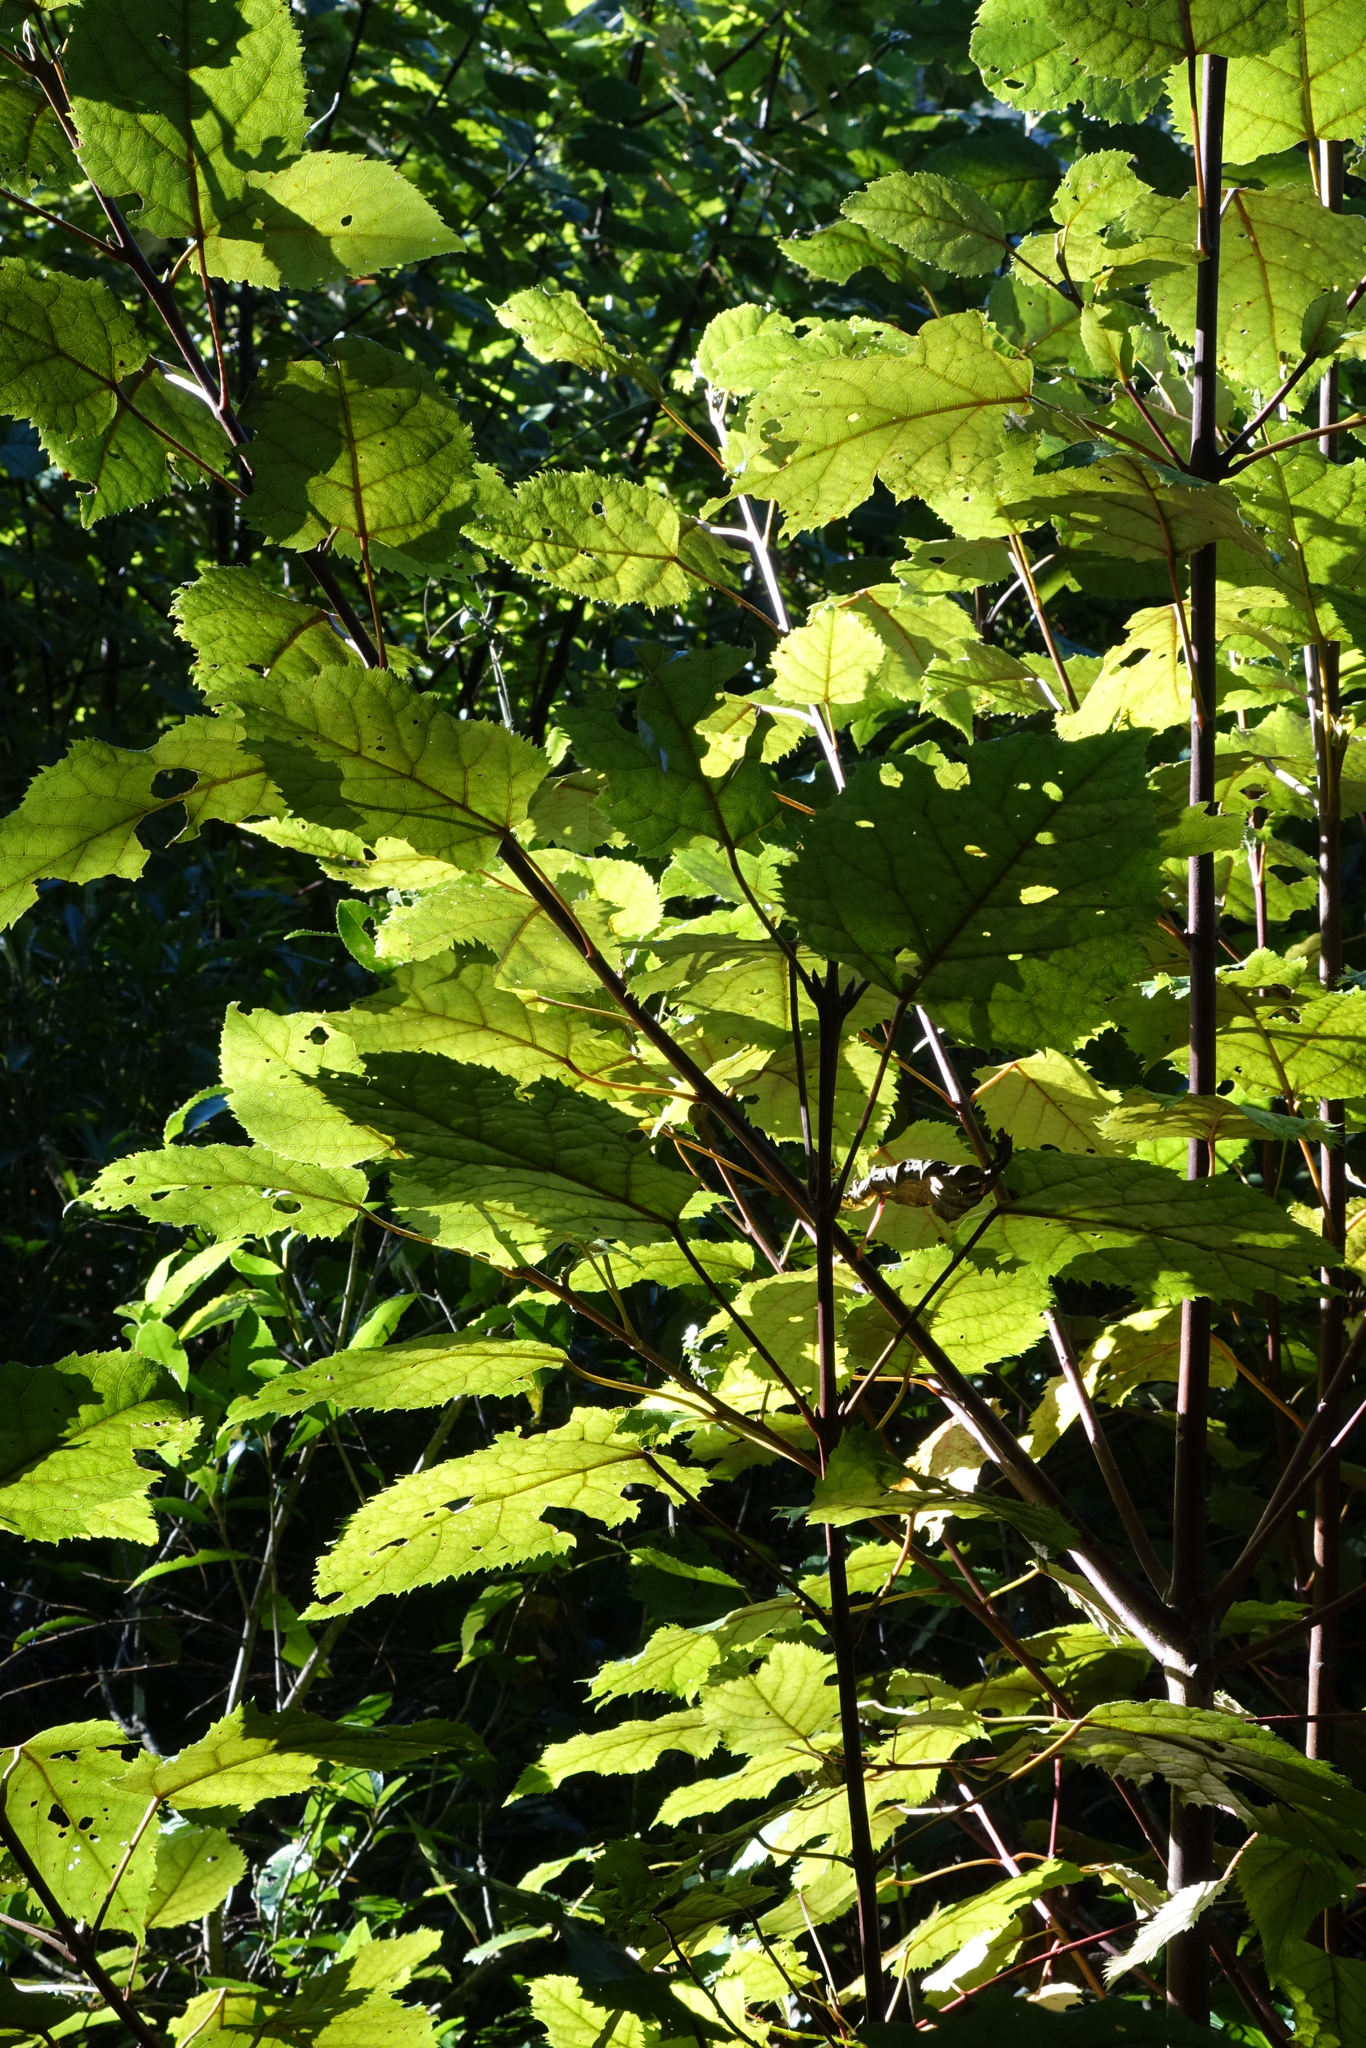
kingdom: Plantae
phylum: Tracheophyta
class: Magnoliopsida
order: Oxalidales
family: Elaeocarpaceae
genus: Aristotelia
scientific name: Aristotelia serrata
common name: New zealand wineberry
